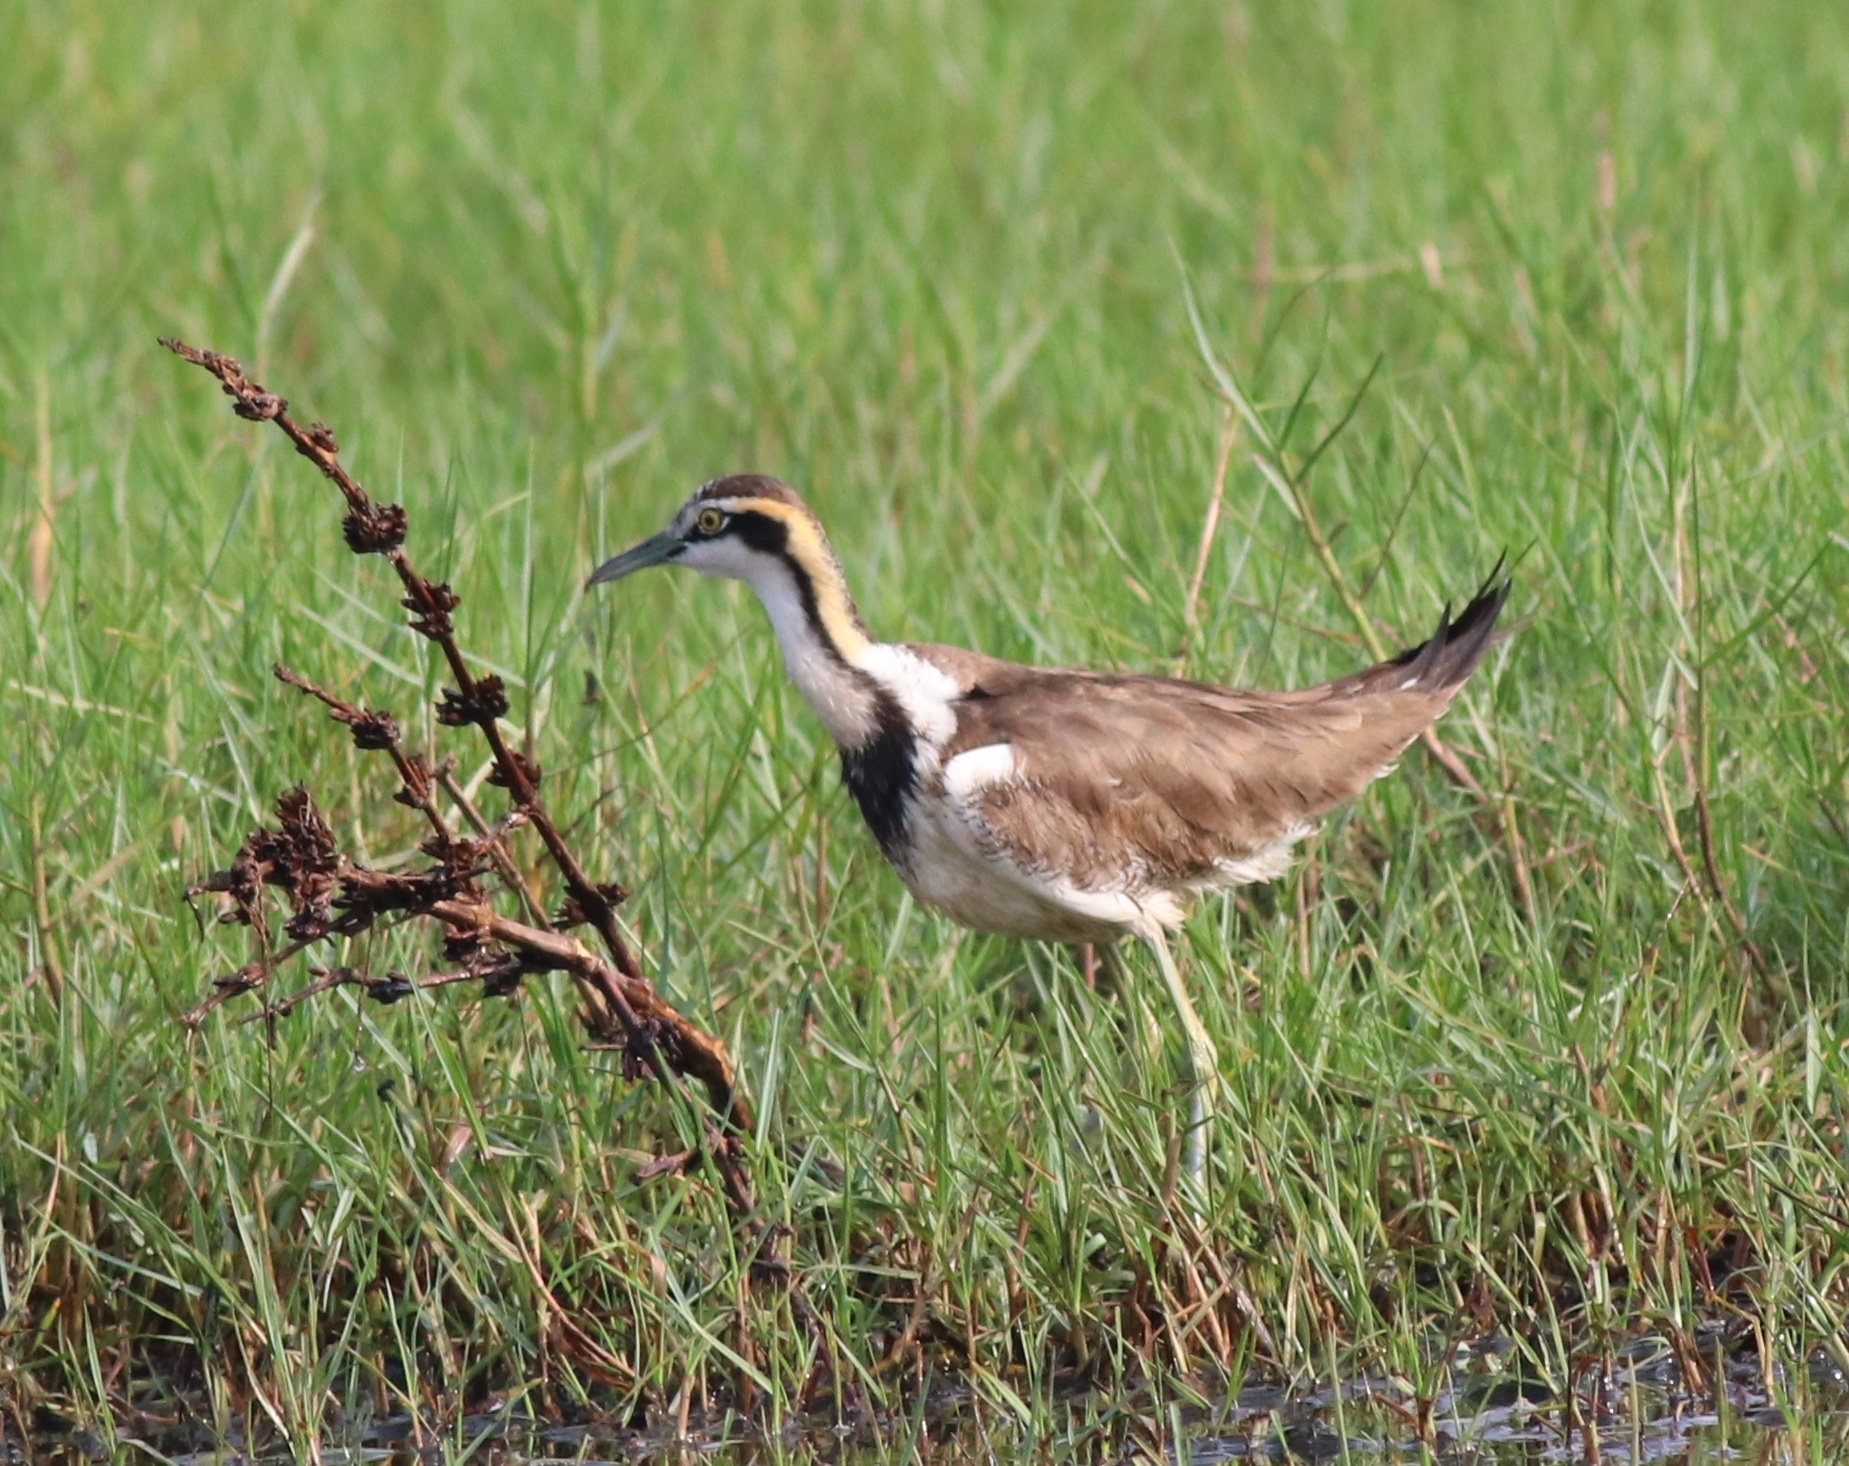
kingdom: Animalia
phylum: Chordata
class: Aves
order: Charadriiformes
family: Jacanidae
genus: Hydrophasianus
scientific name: Hydrophasianus chirurgus
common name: Pheasant-tailed jacana
